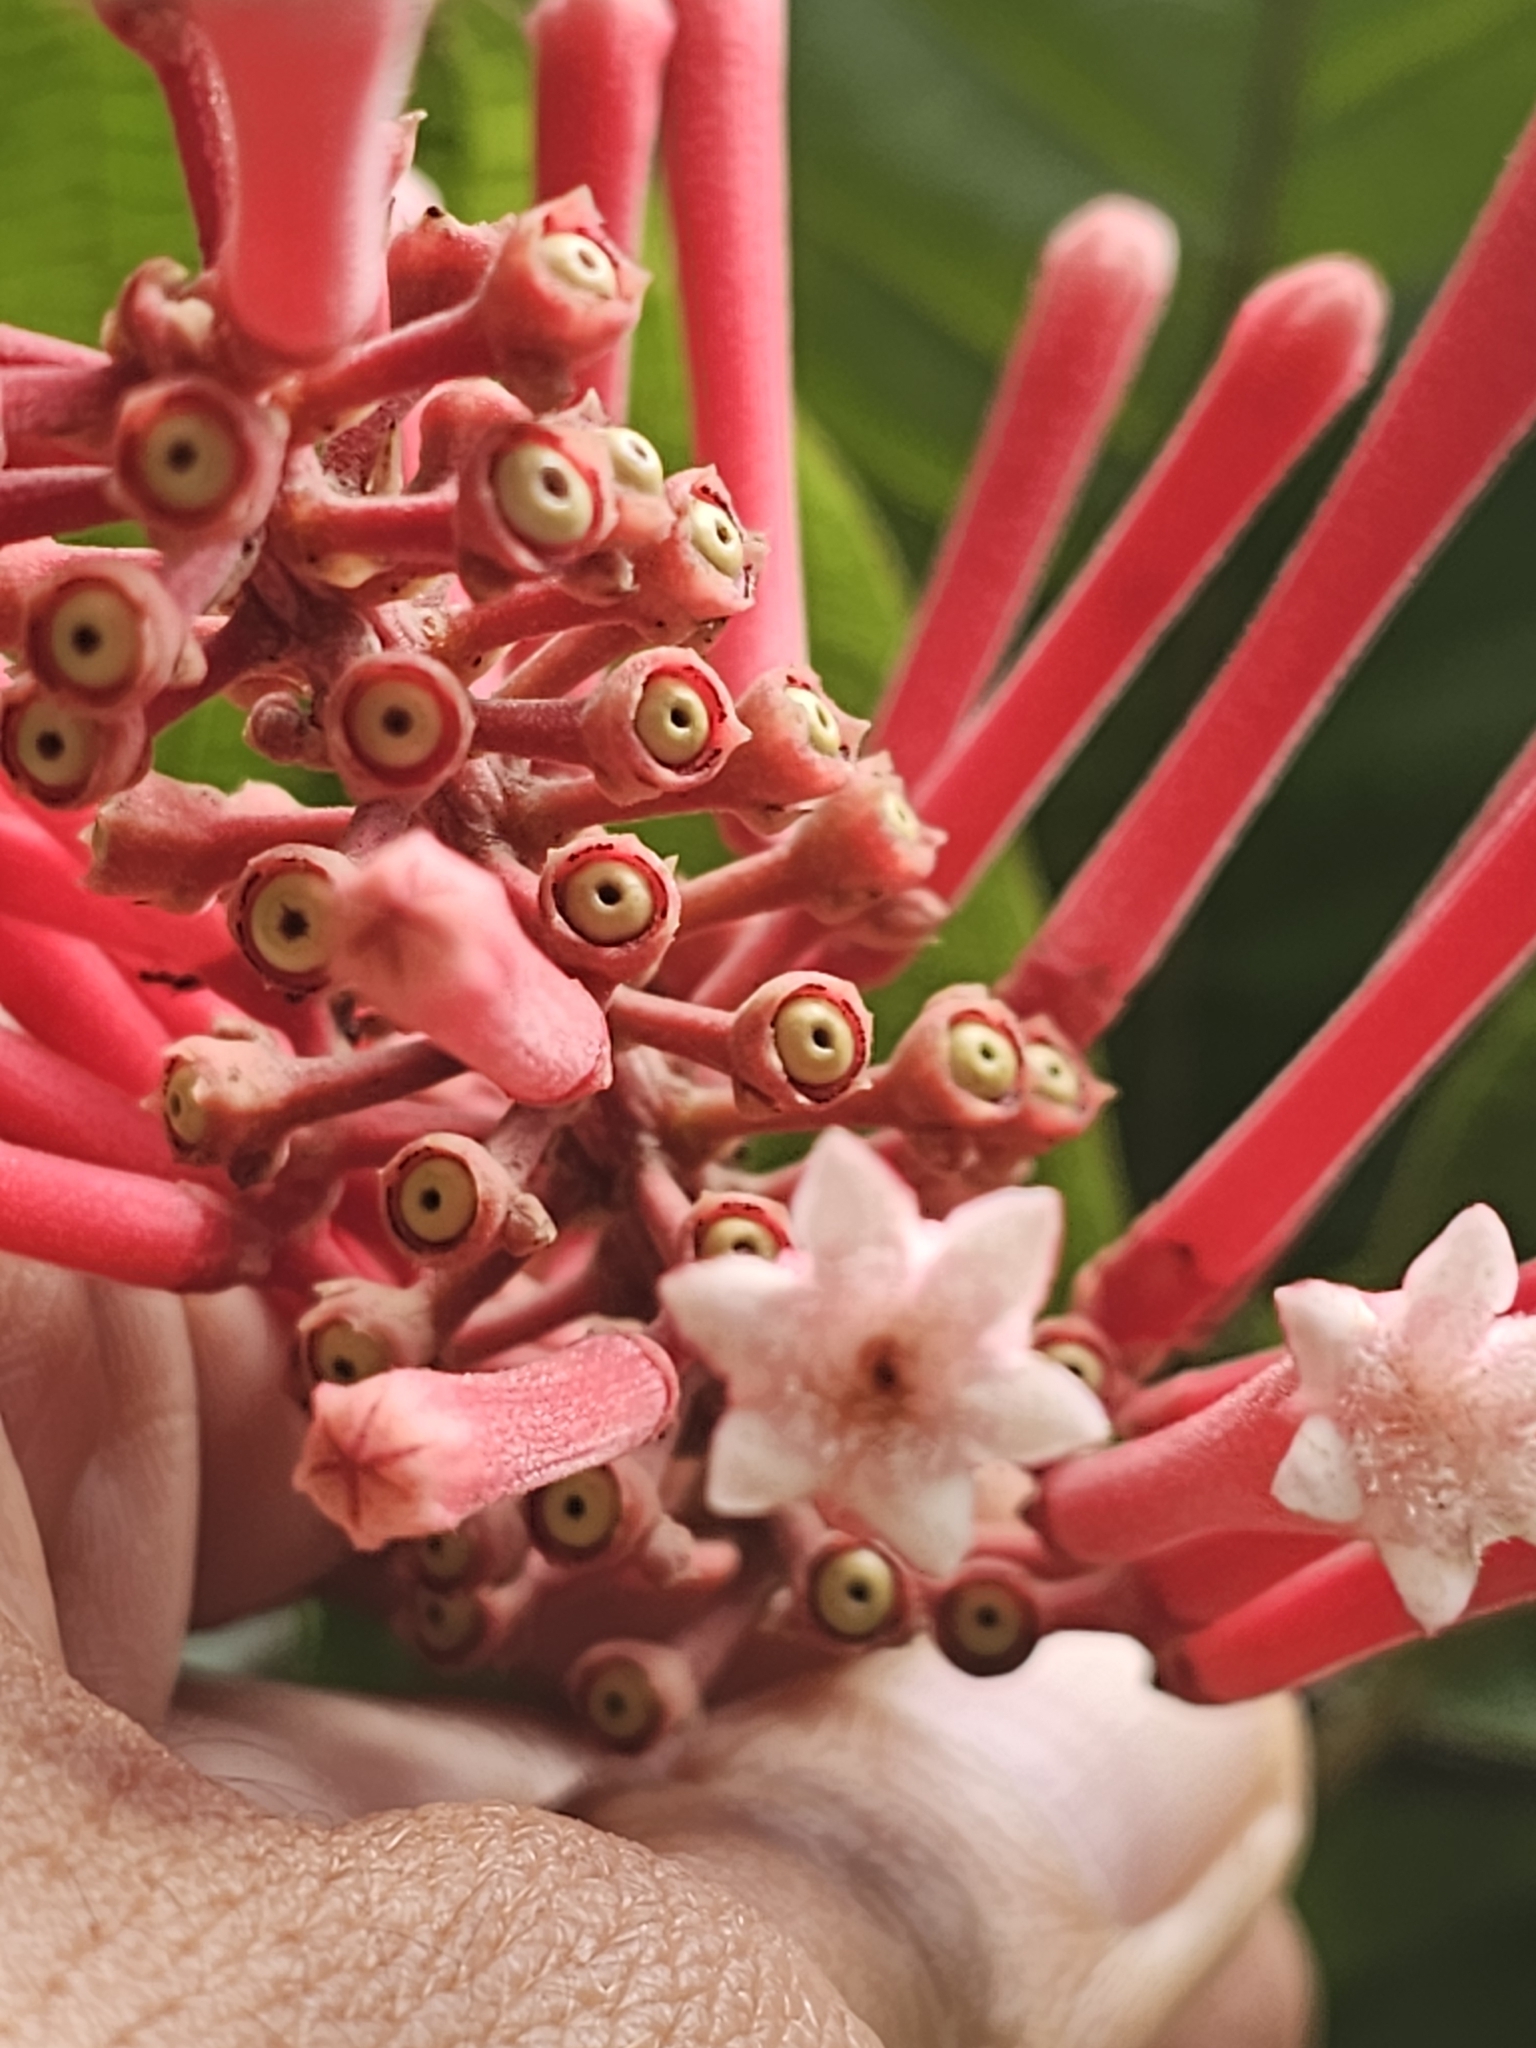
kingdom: Plantae
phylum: Tracheophyta
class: Magnoliopsida
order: Gentianales
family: Rubiaceae
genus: Isertia
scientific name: Isertia spiciformis
